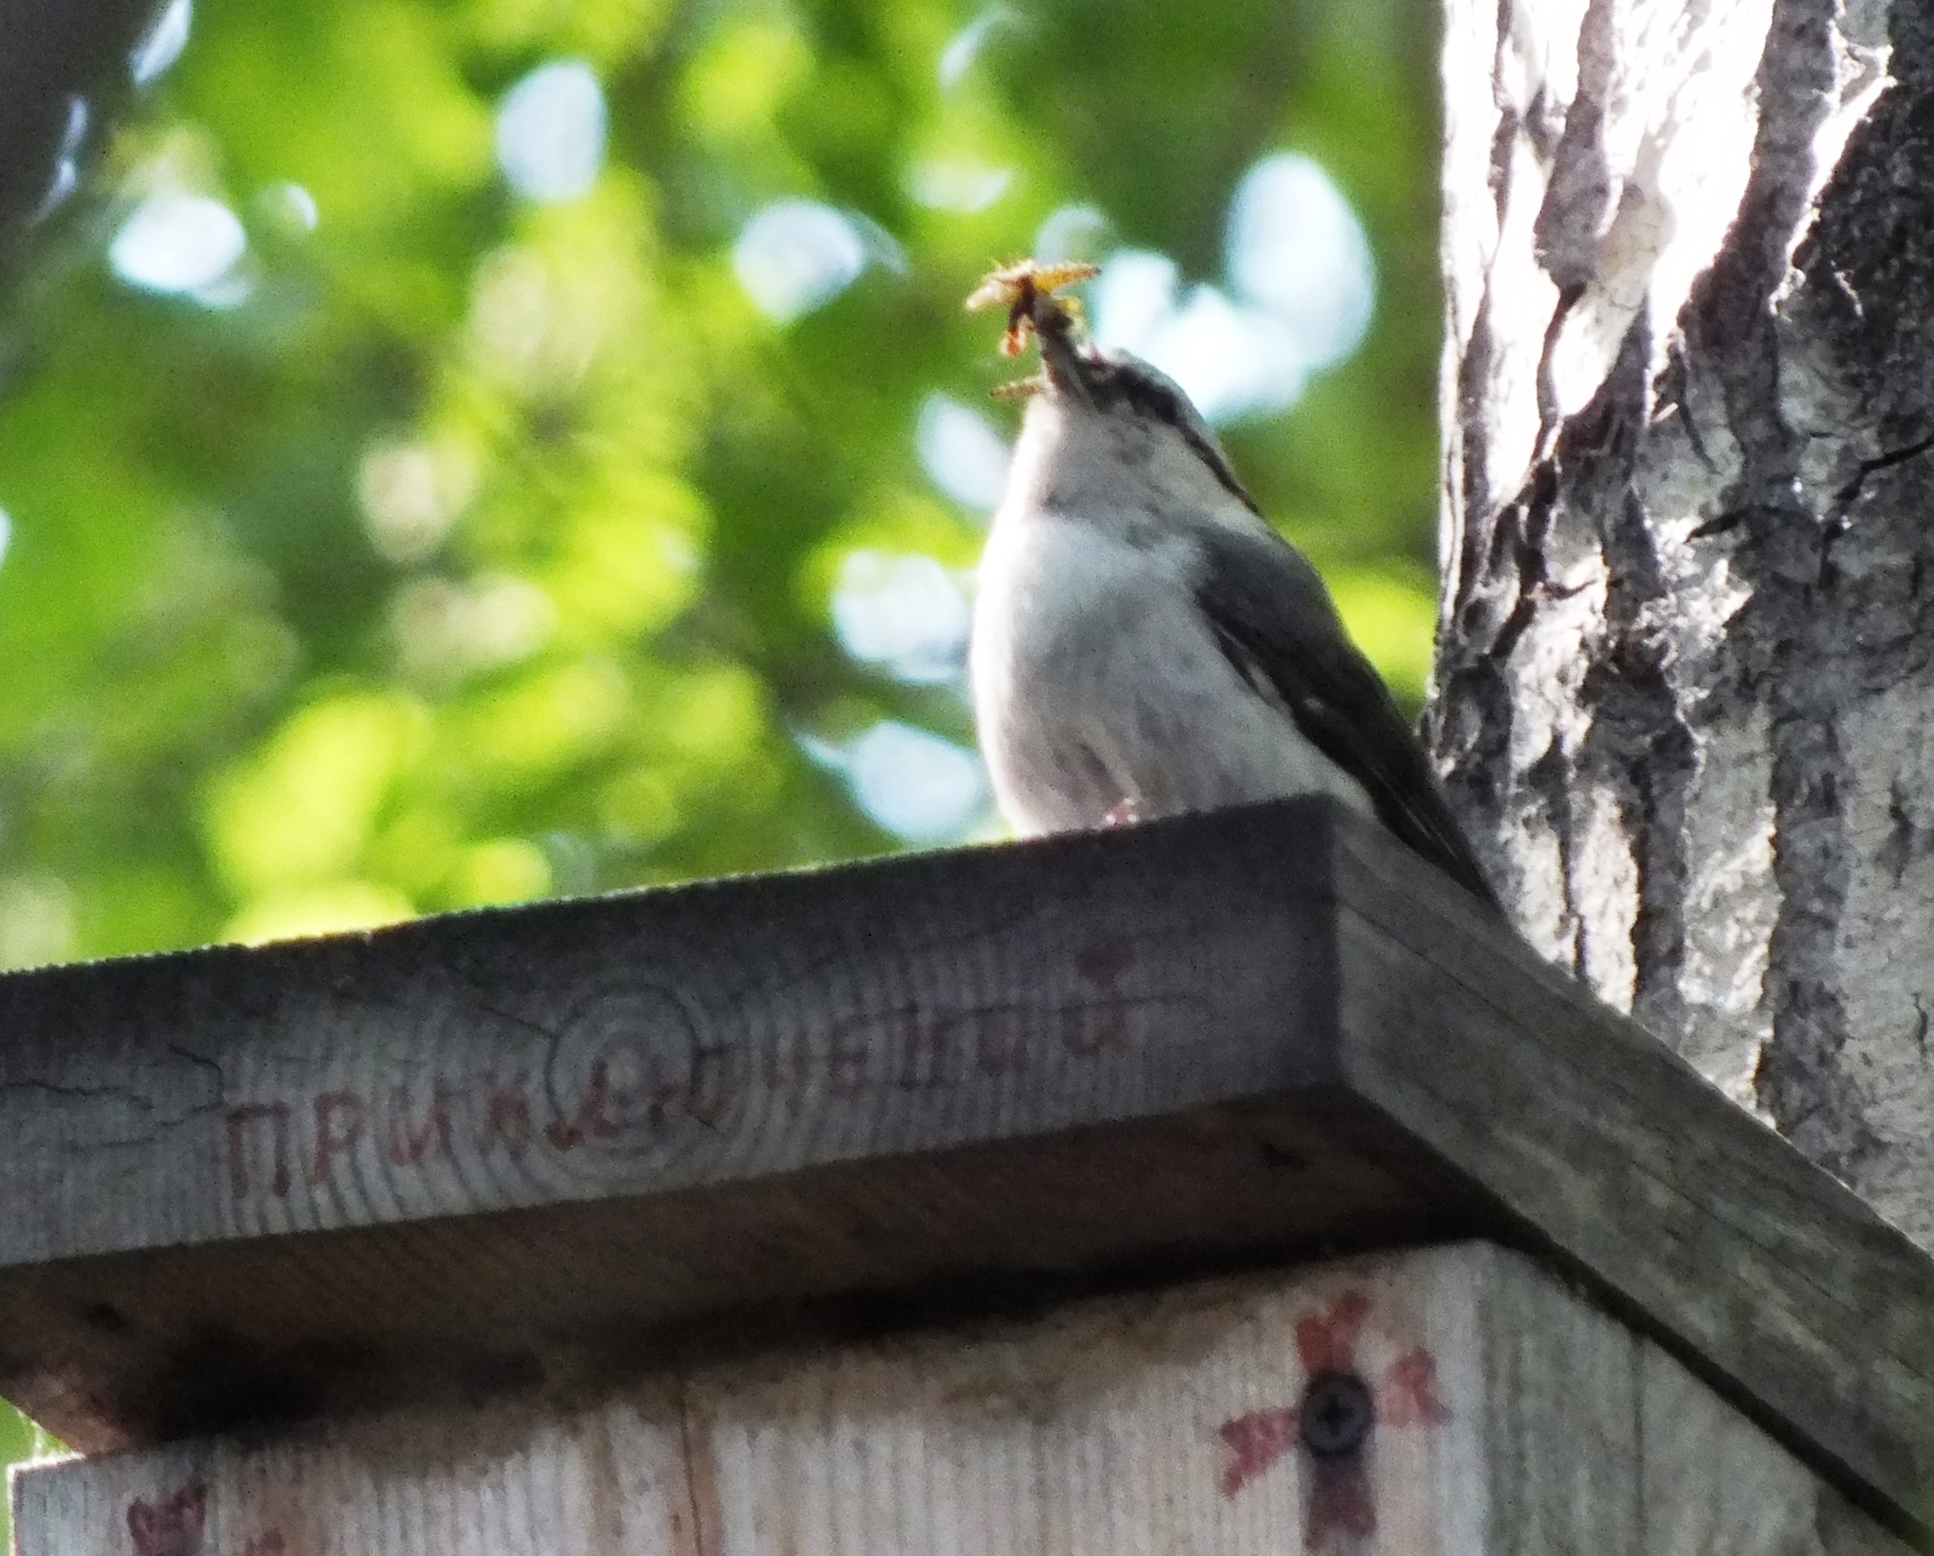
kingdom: Animalia
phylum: Chordata
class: Aves
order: Passeriformes
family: Sittidae
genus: Sitta
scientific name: Sitta europaea
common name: Eurasian nuthatch
